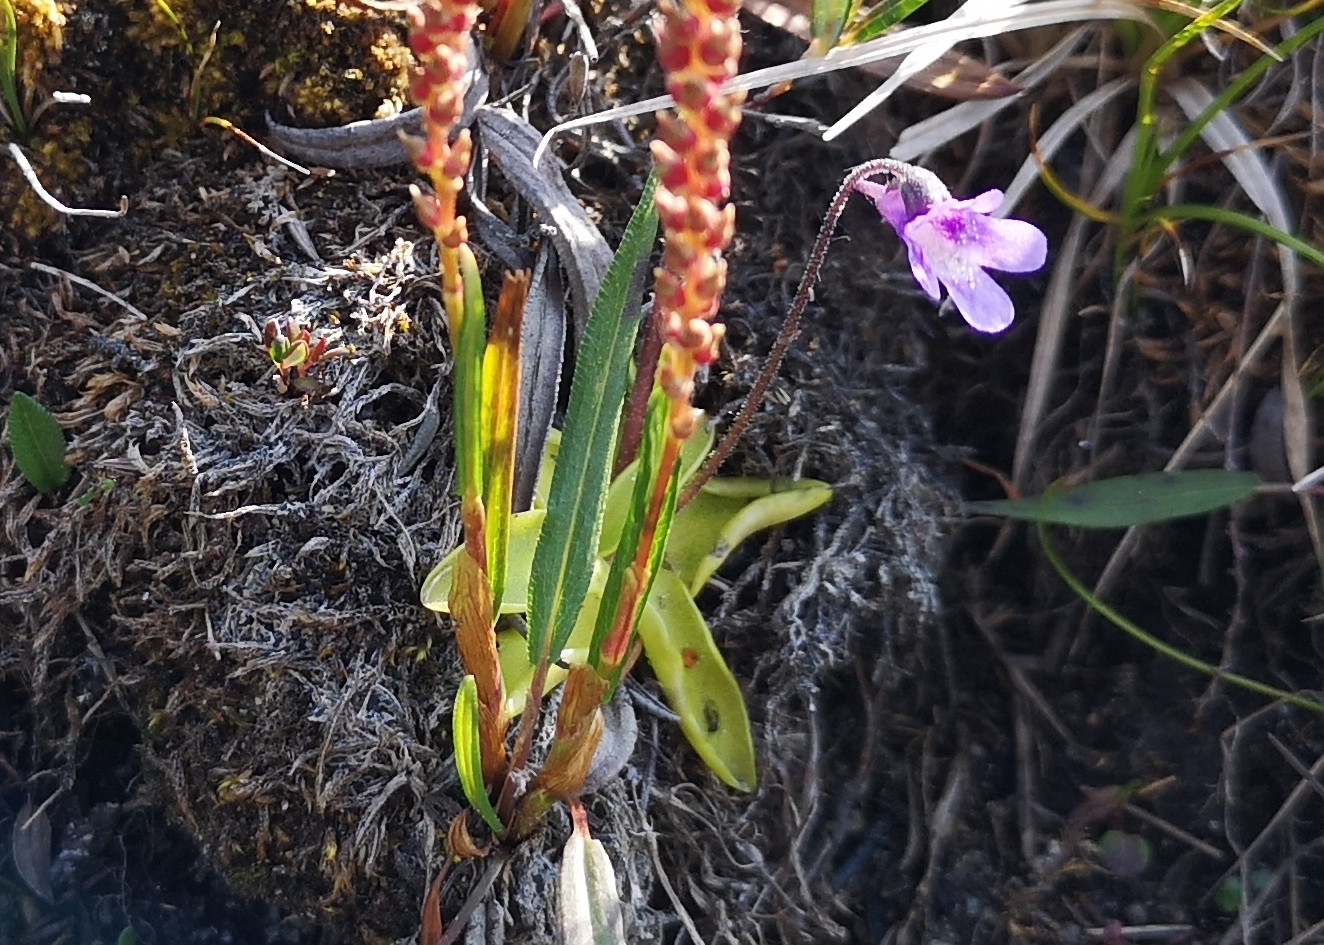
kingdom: Plantae
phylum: Tracheophyta
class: Magnoliopsida
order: Lamiales
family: Lentibulariaceae
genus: Pinguicula
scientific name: Pinguicula vulgaris
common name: Common butterwort
